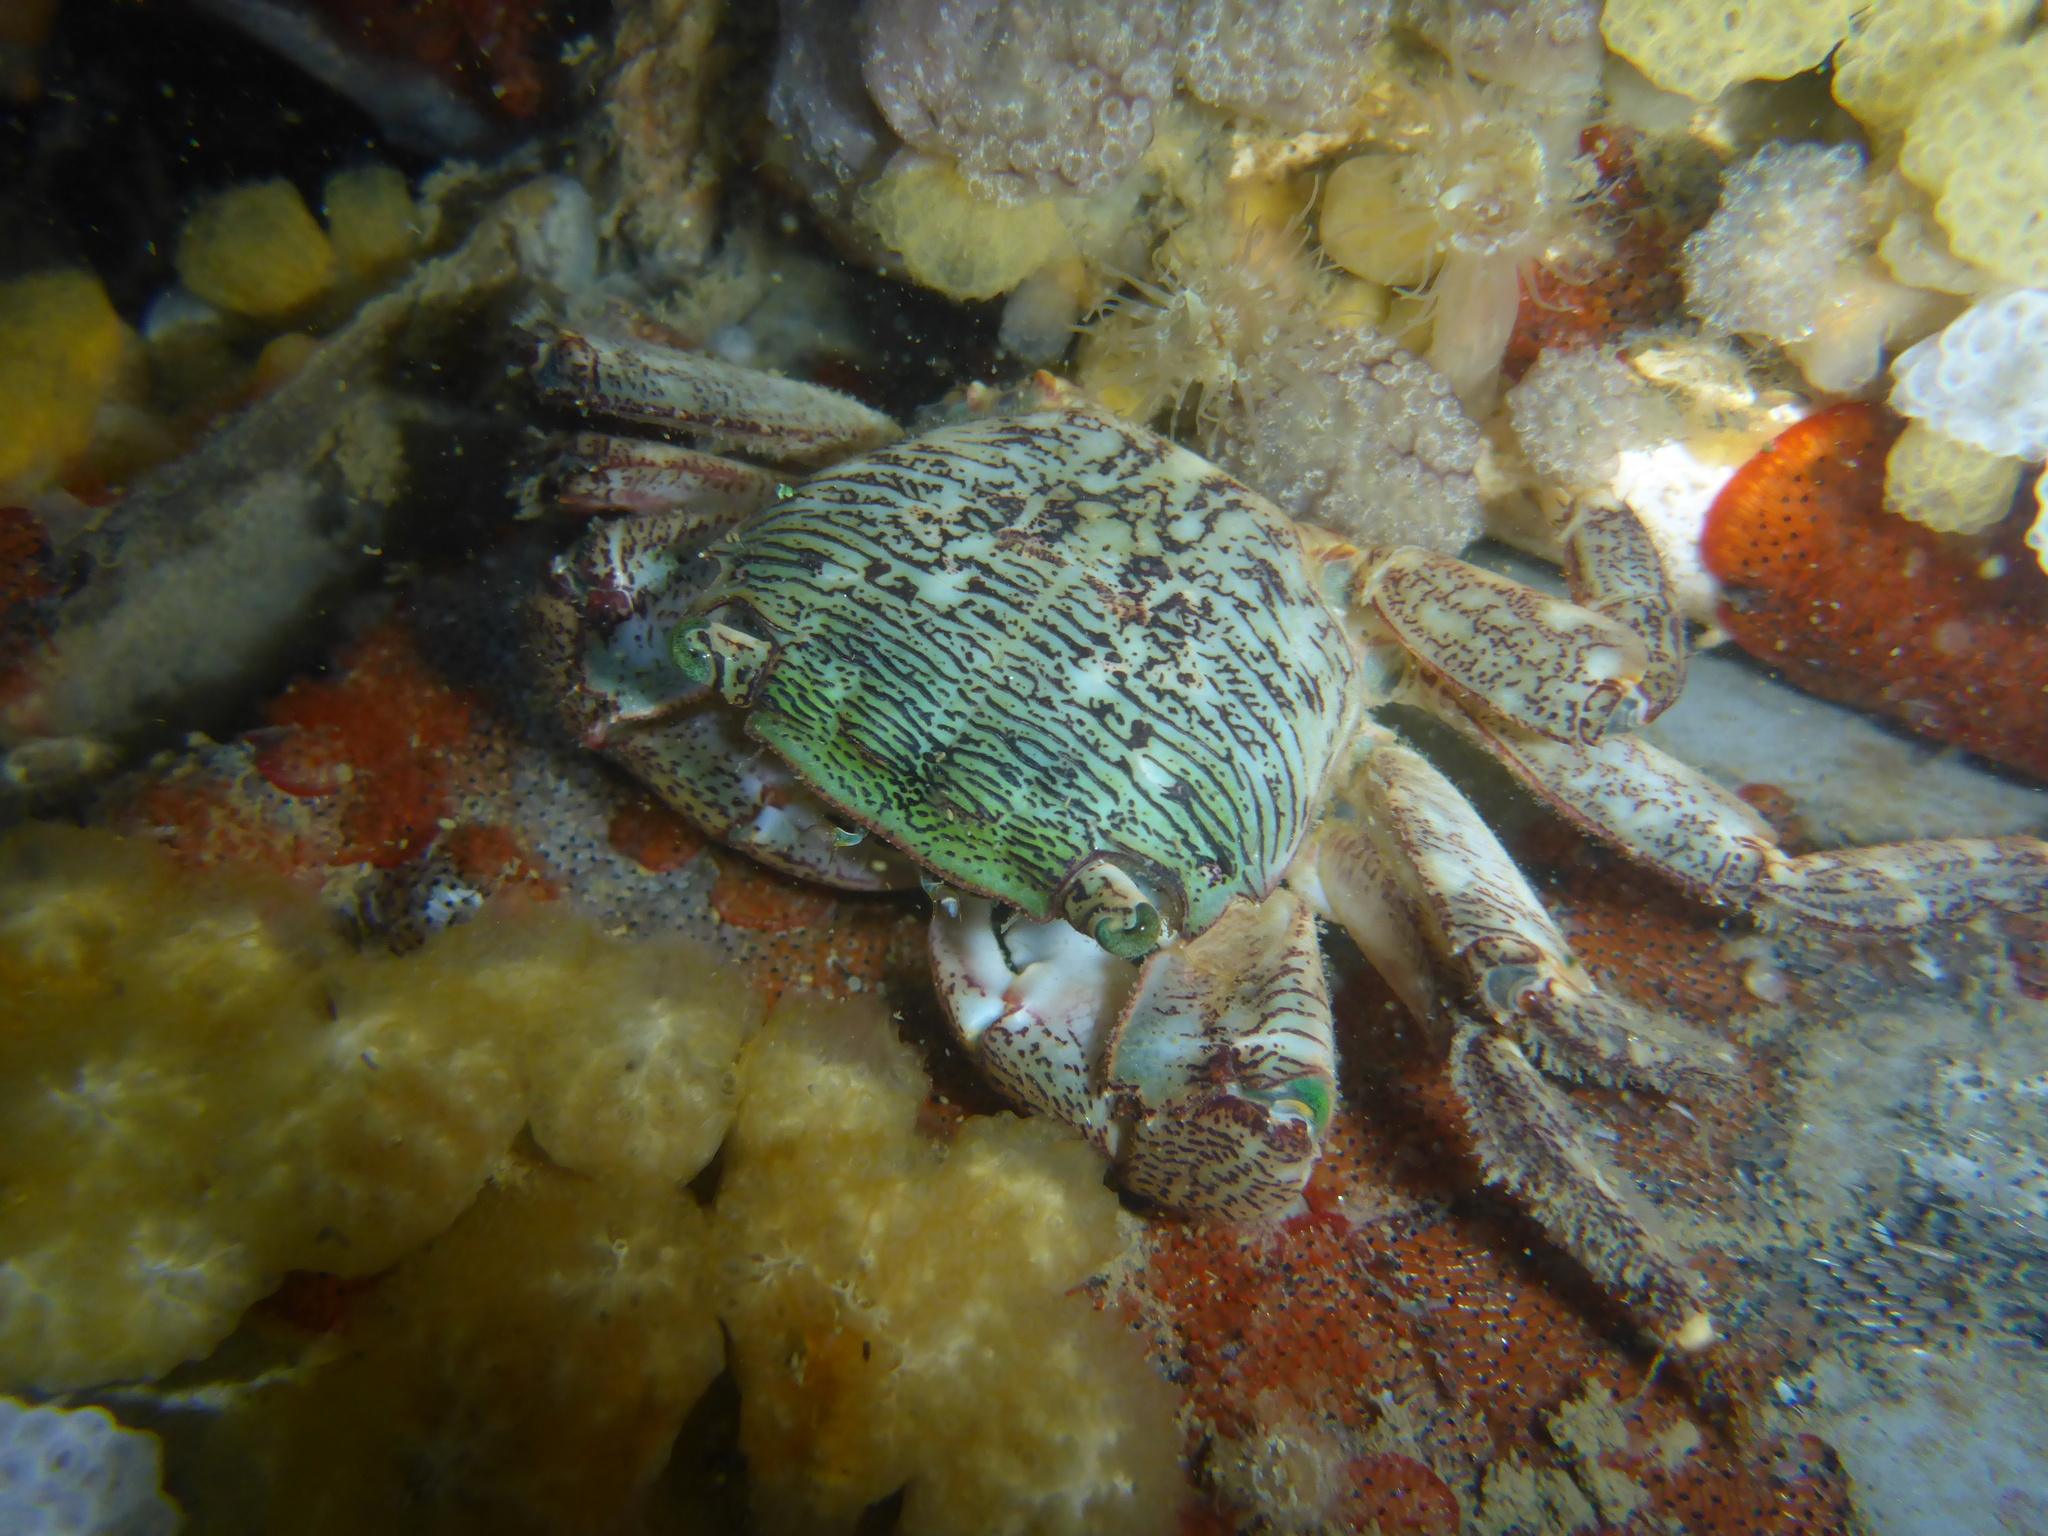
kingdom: Animalia
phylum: Arthropoda
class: Malacostraca
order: Decapoda
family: Grapsidae
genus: Pachygrapsus
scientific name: Pachygrapsus crassipes
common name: Striped shore crab
